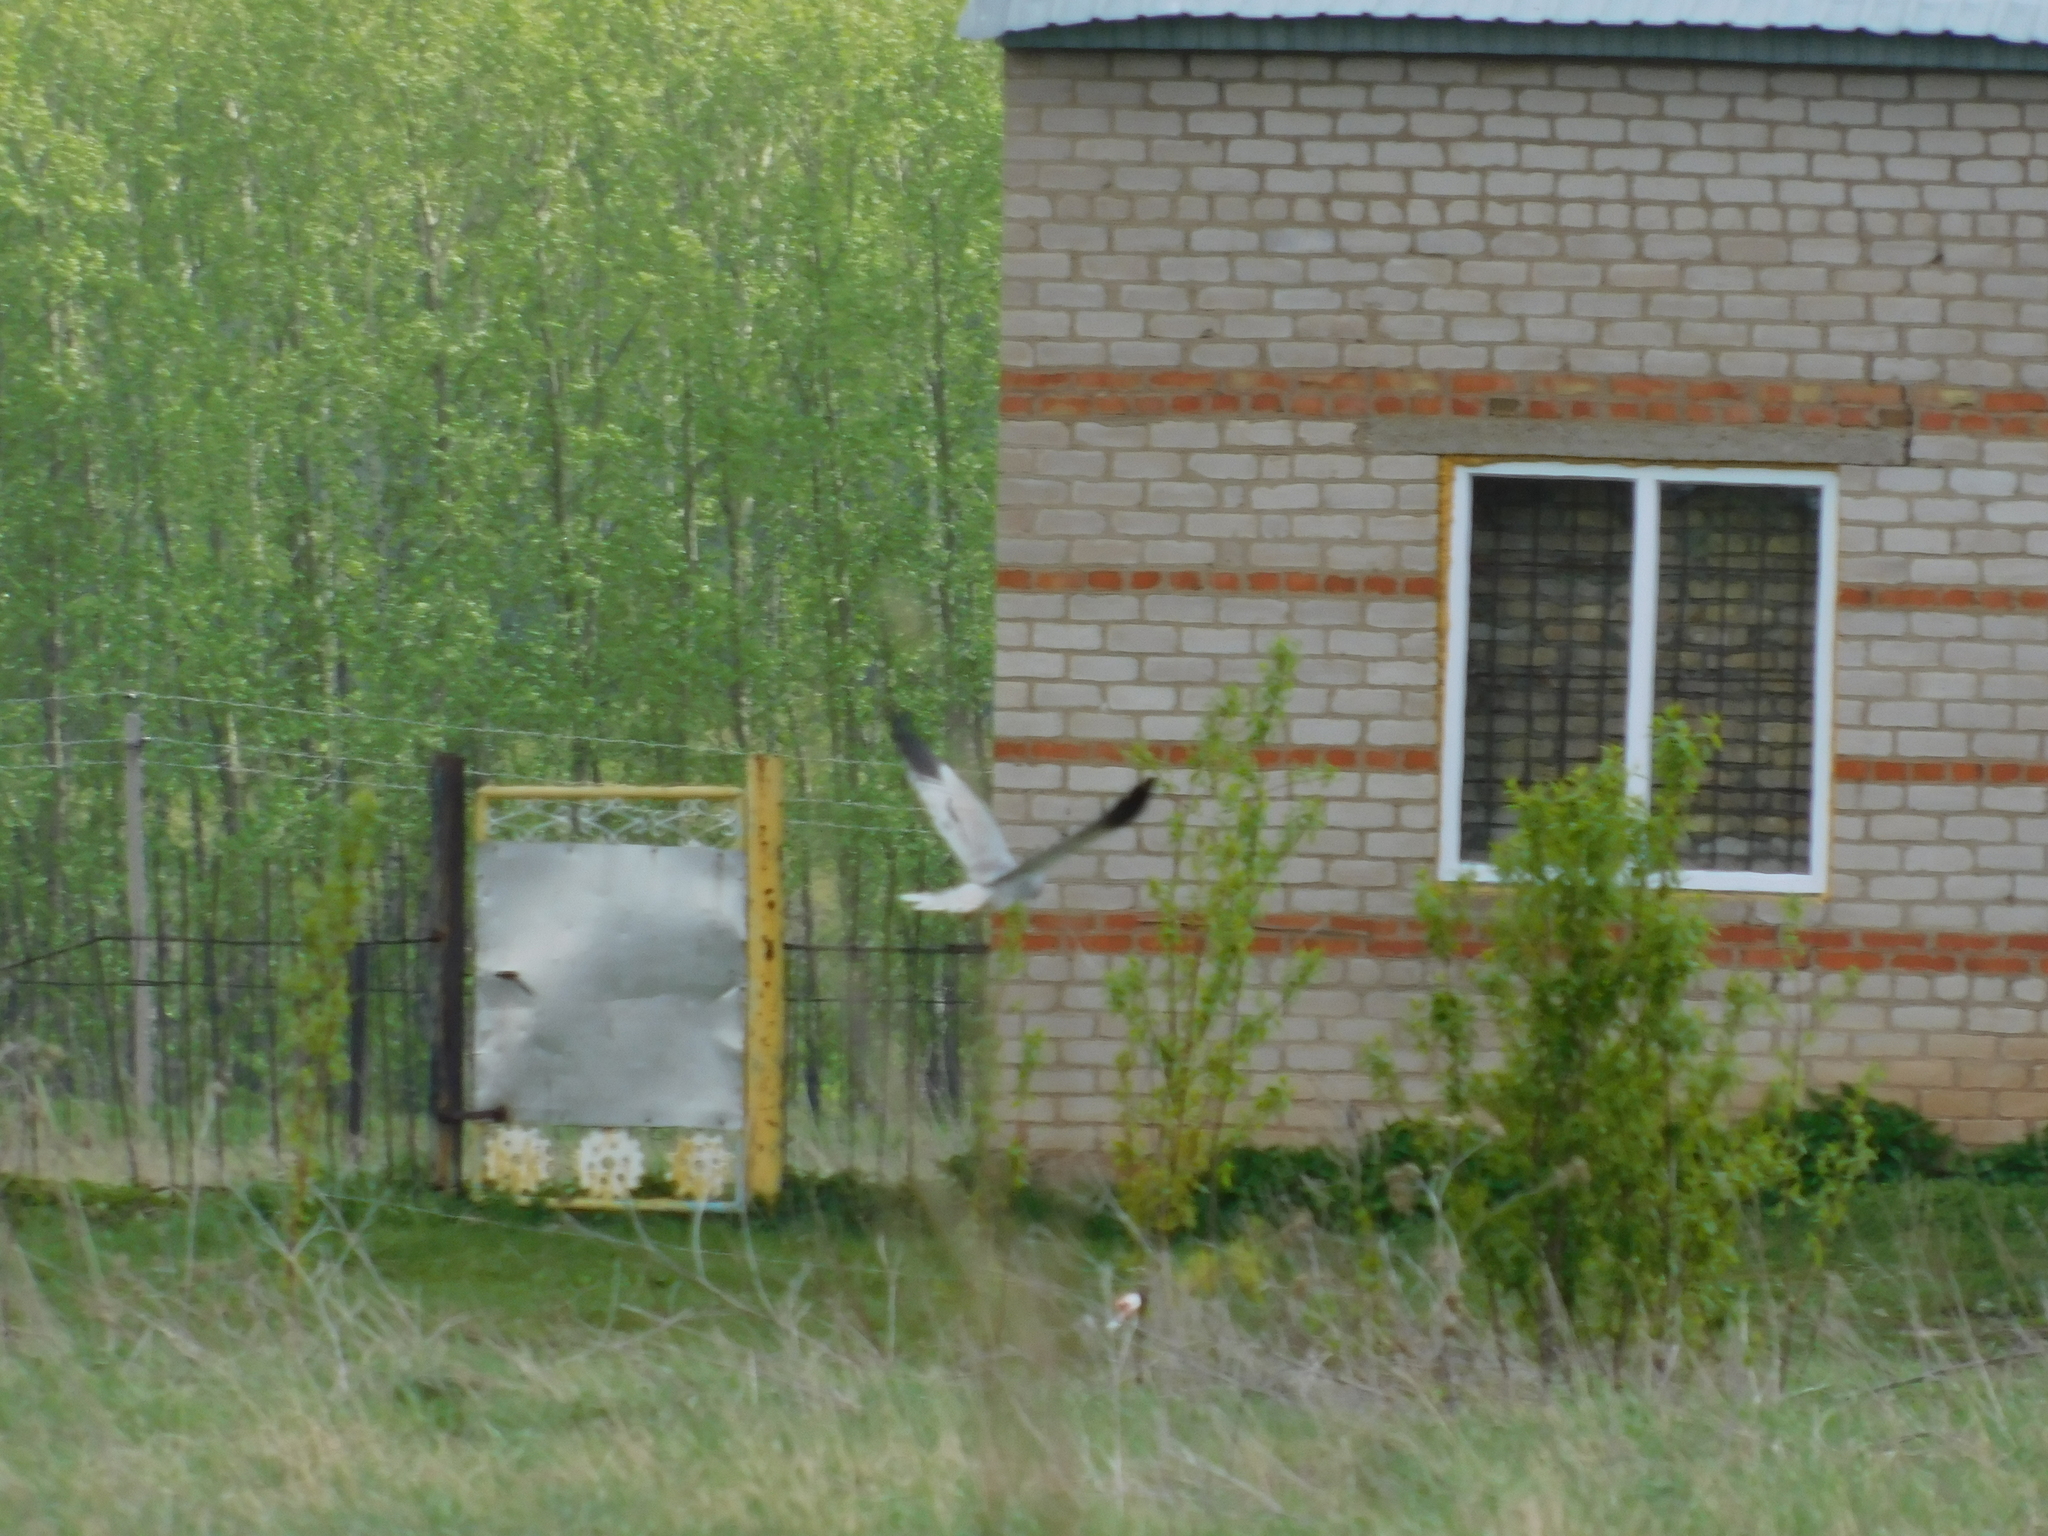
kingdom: Animalia
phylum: Chordata
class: Aves
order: Accipitriformes
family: Accipitridae
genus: Circus
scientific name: Circus pygargus
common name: Montagu's harrier
